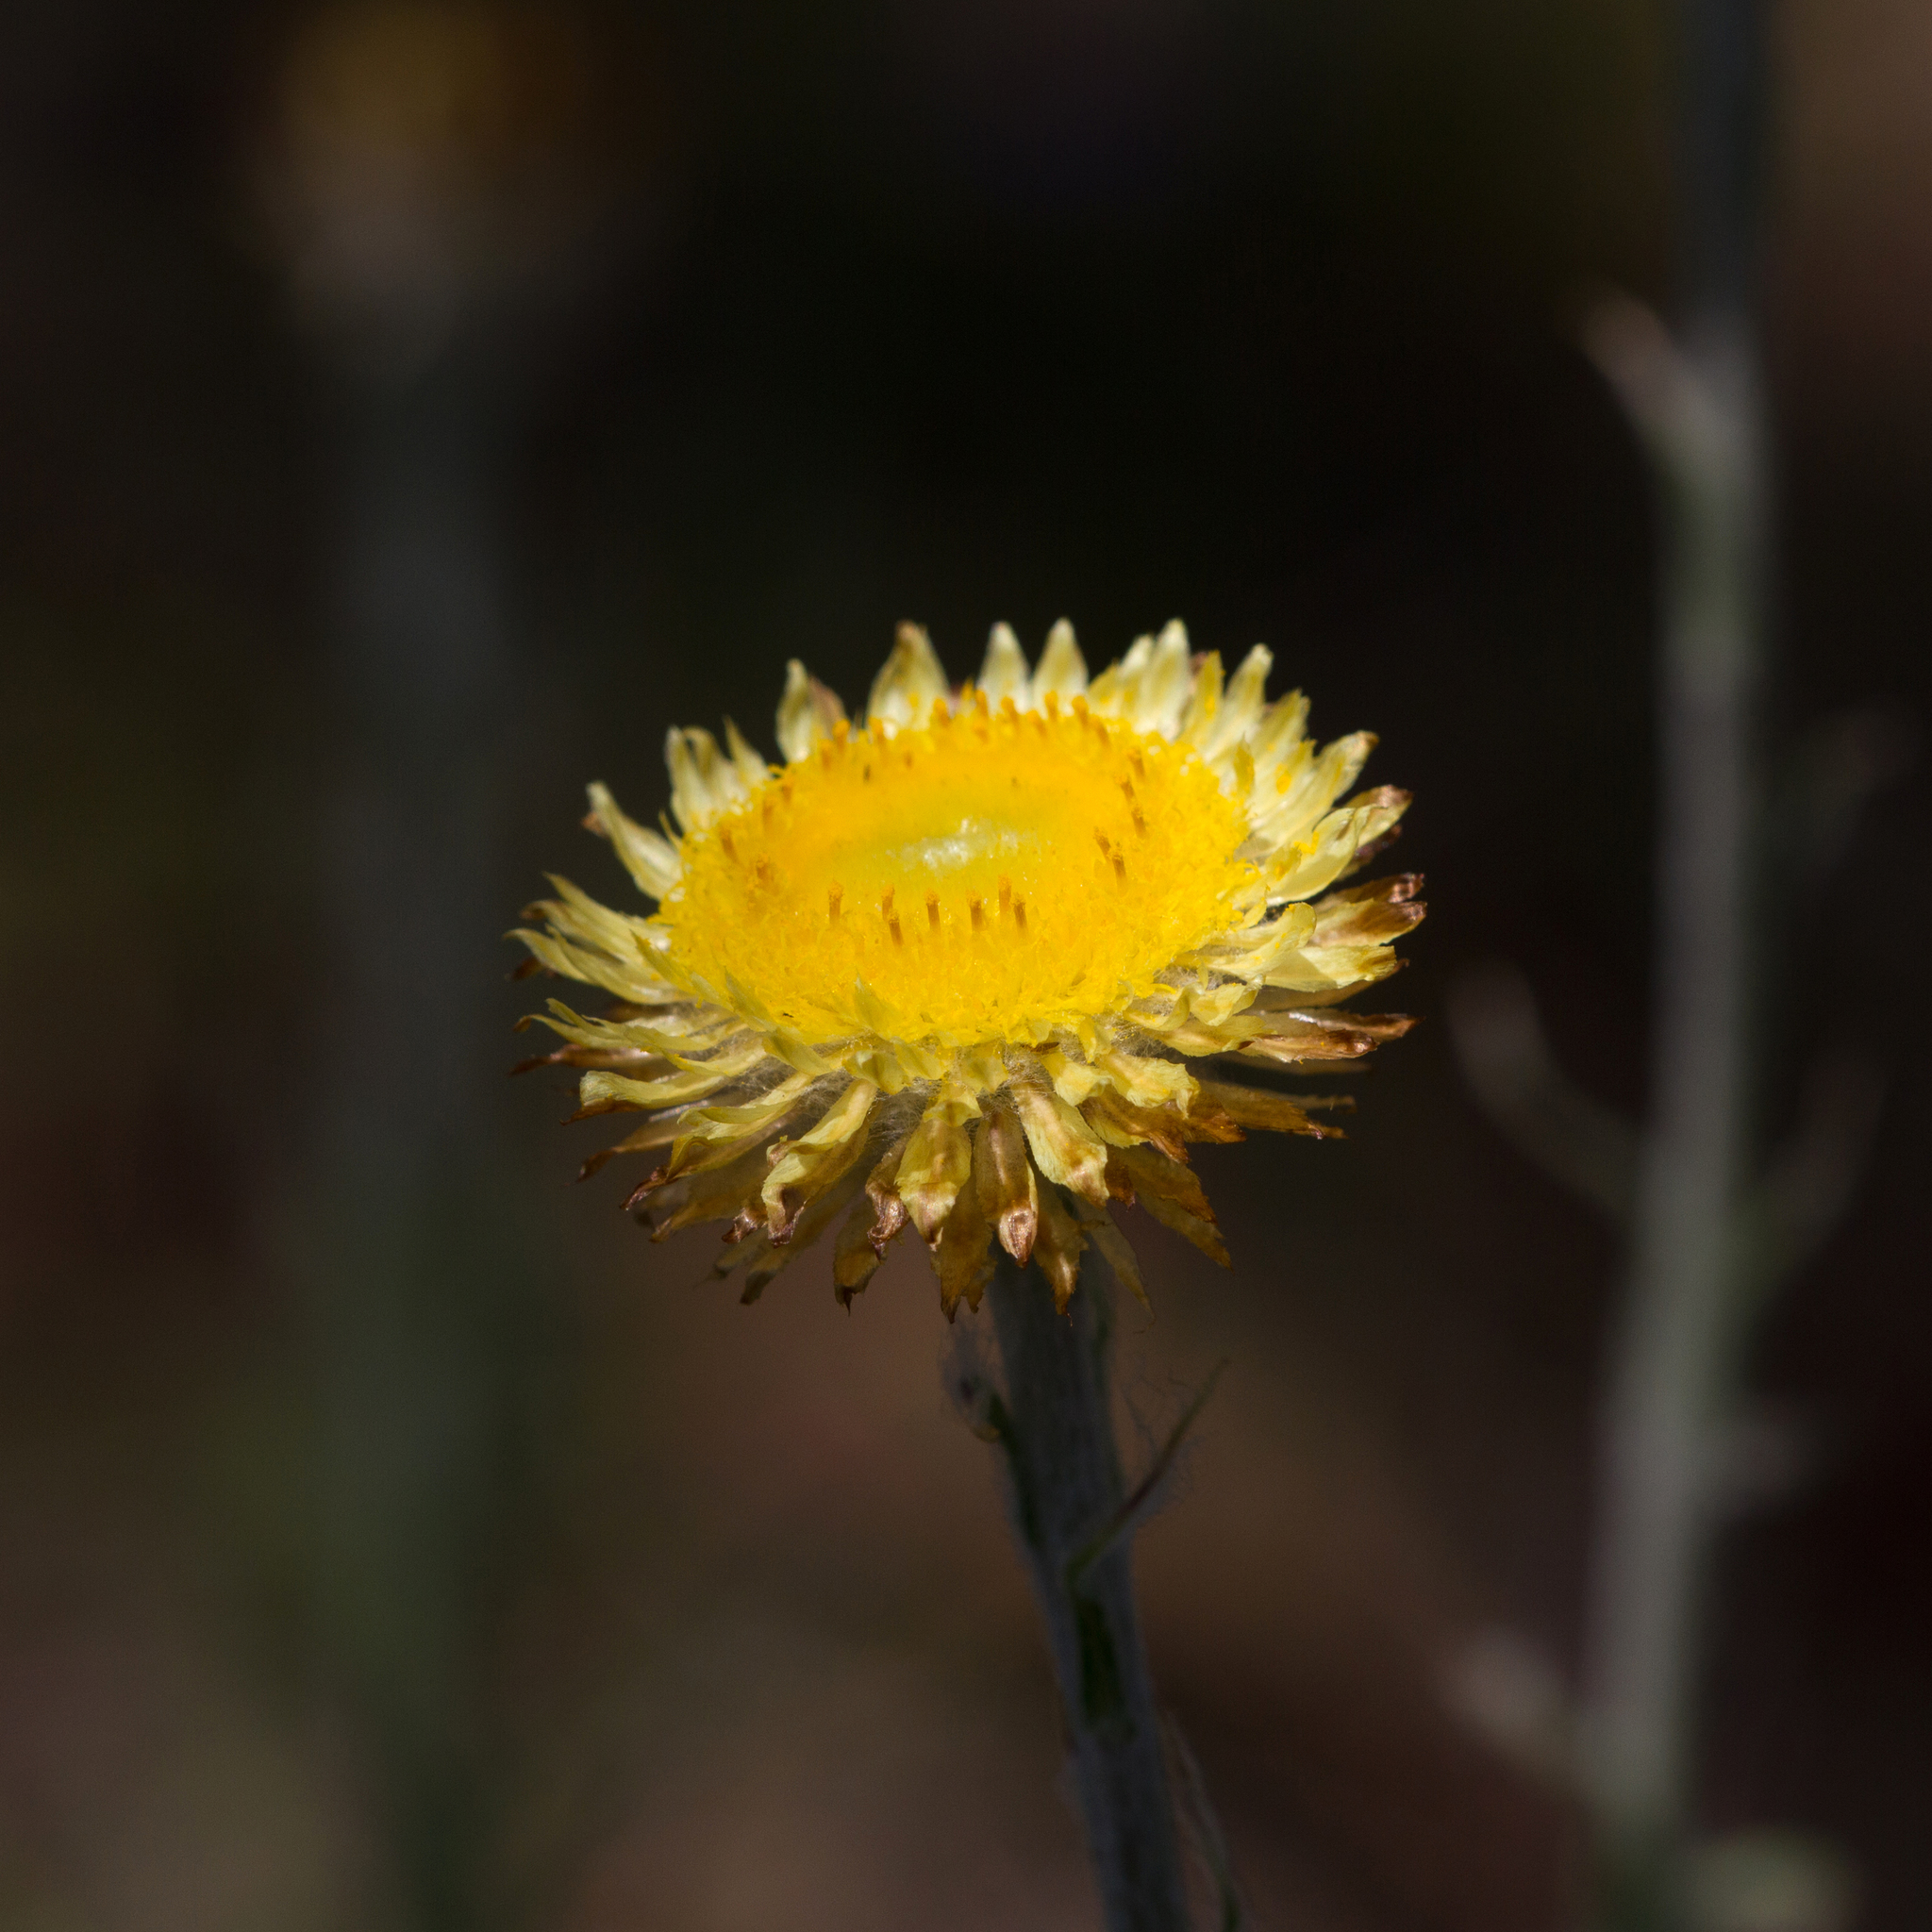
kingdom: Plantae
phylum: Tracheophyta
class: Magnoliopsida
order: Asterales
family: Asteraceae
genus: Coronidium
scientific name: Coronidium scorpioides
